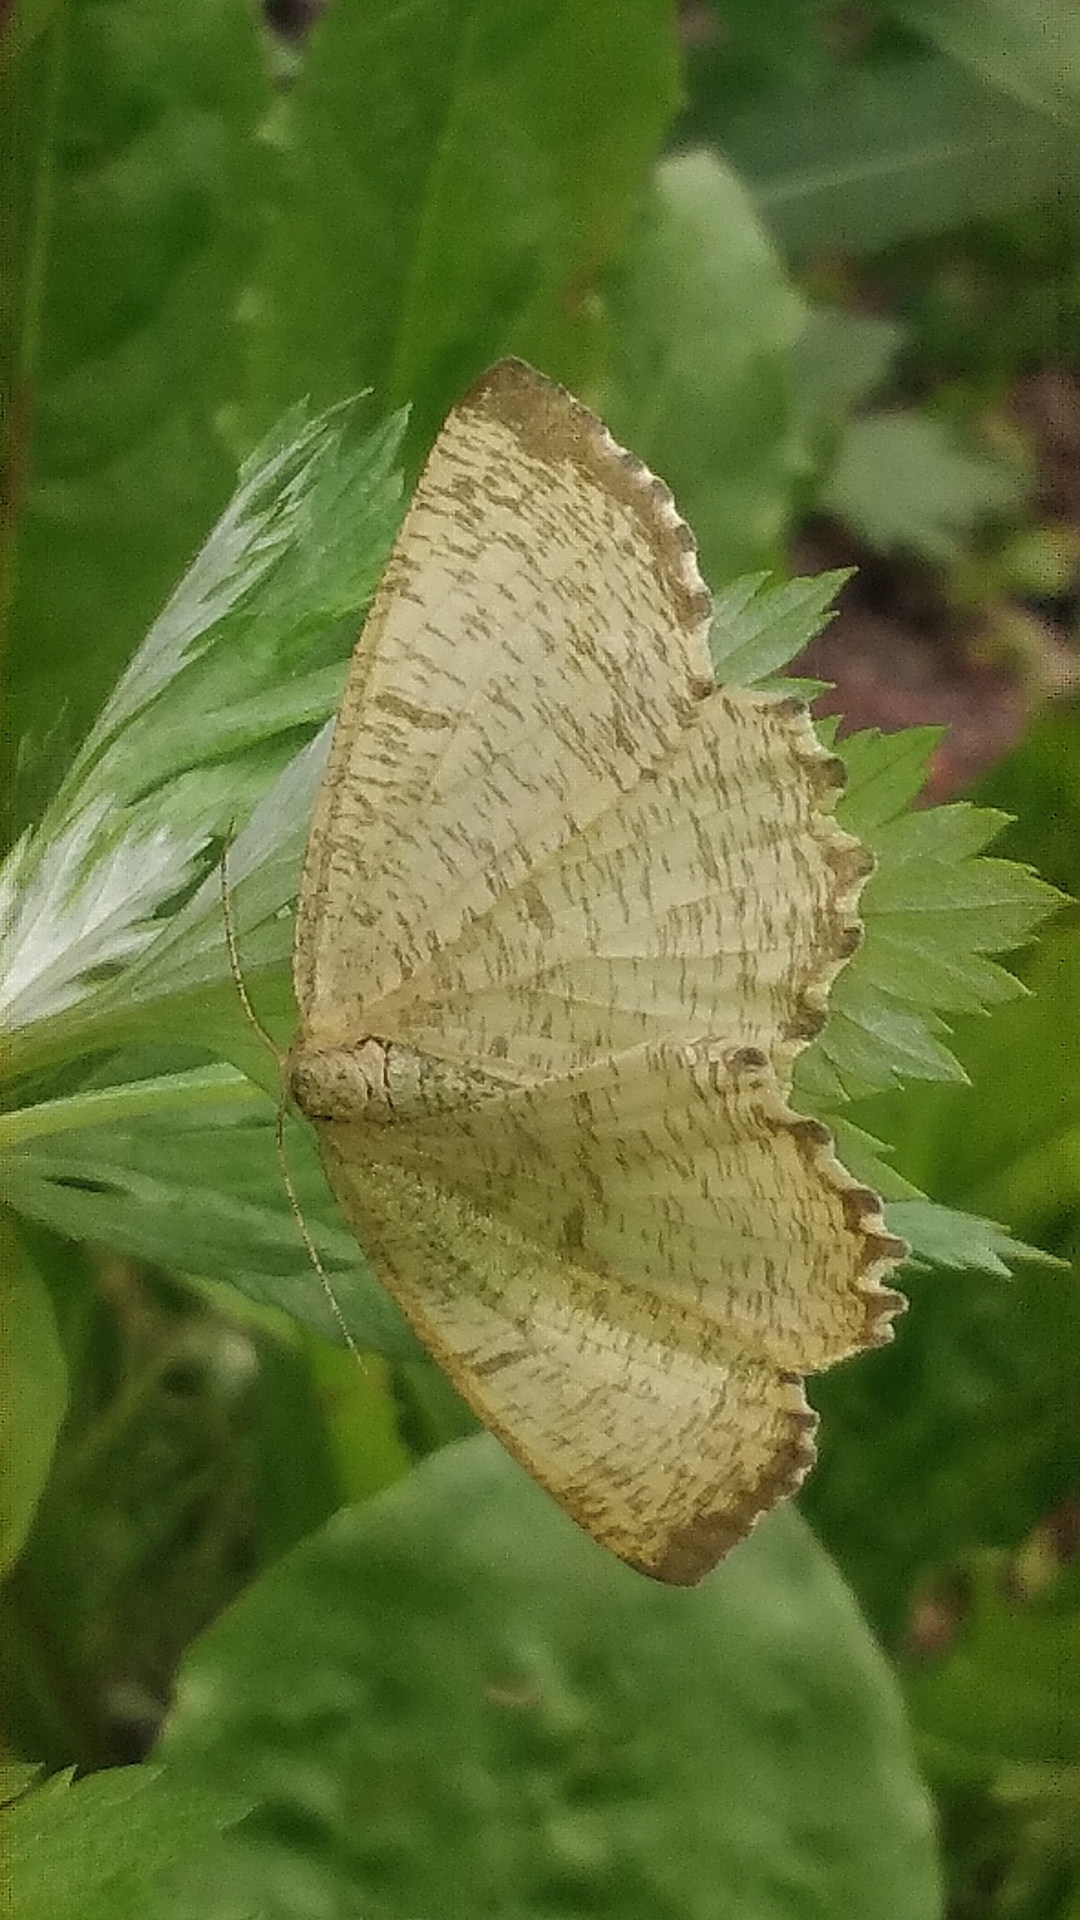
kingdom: Animalia
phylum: Arthropoda
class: Insecta
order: Lepidoptera
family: Geometridae
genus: Angerona
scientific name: Angerona prunaria
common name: Orange moth
